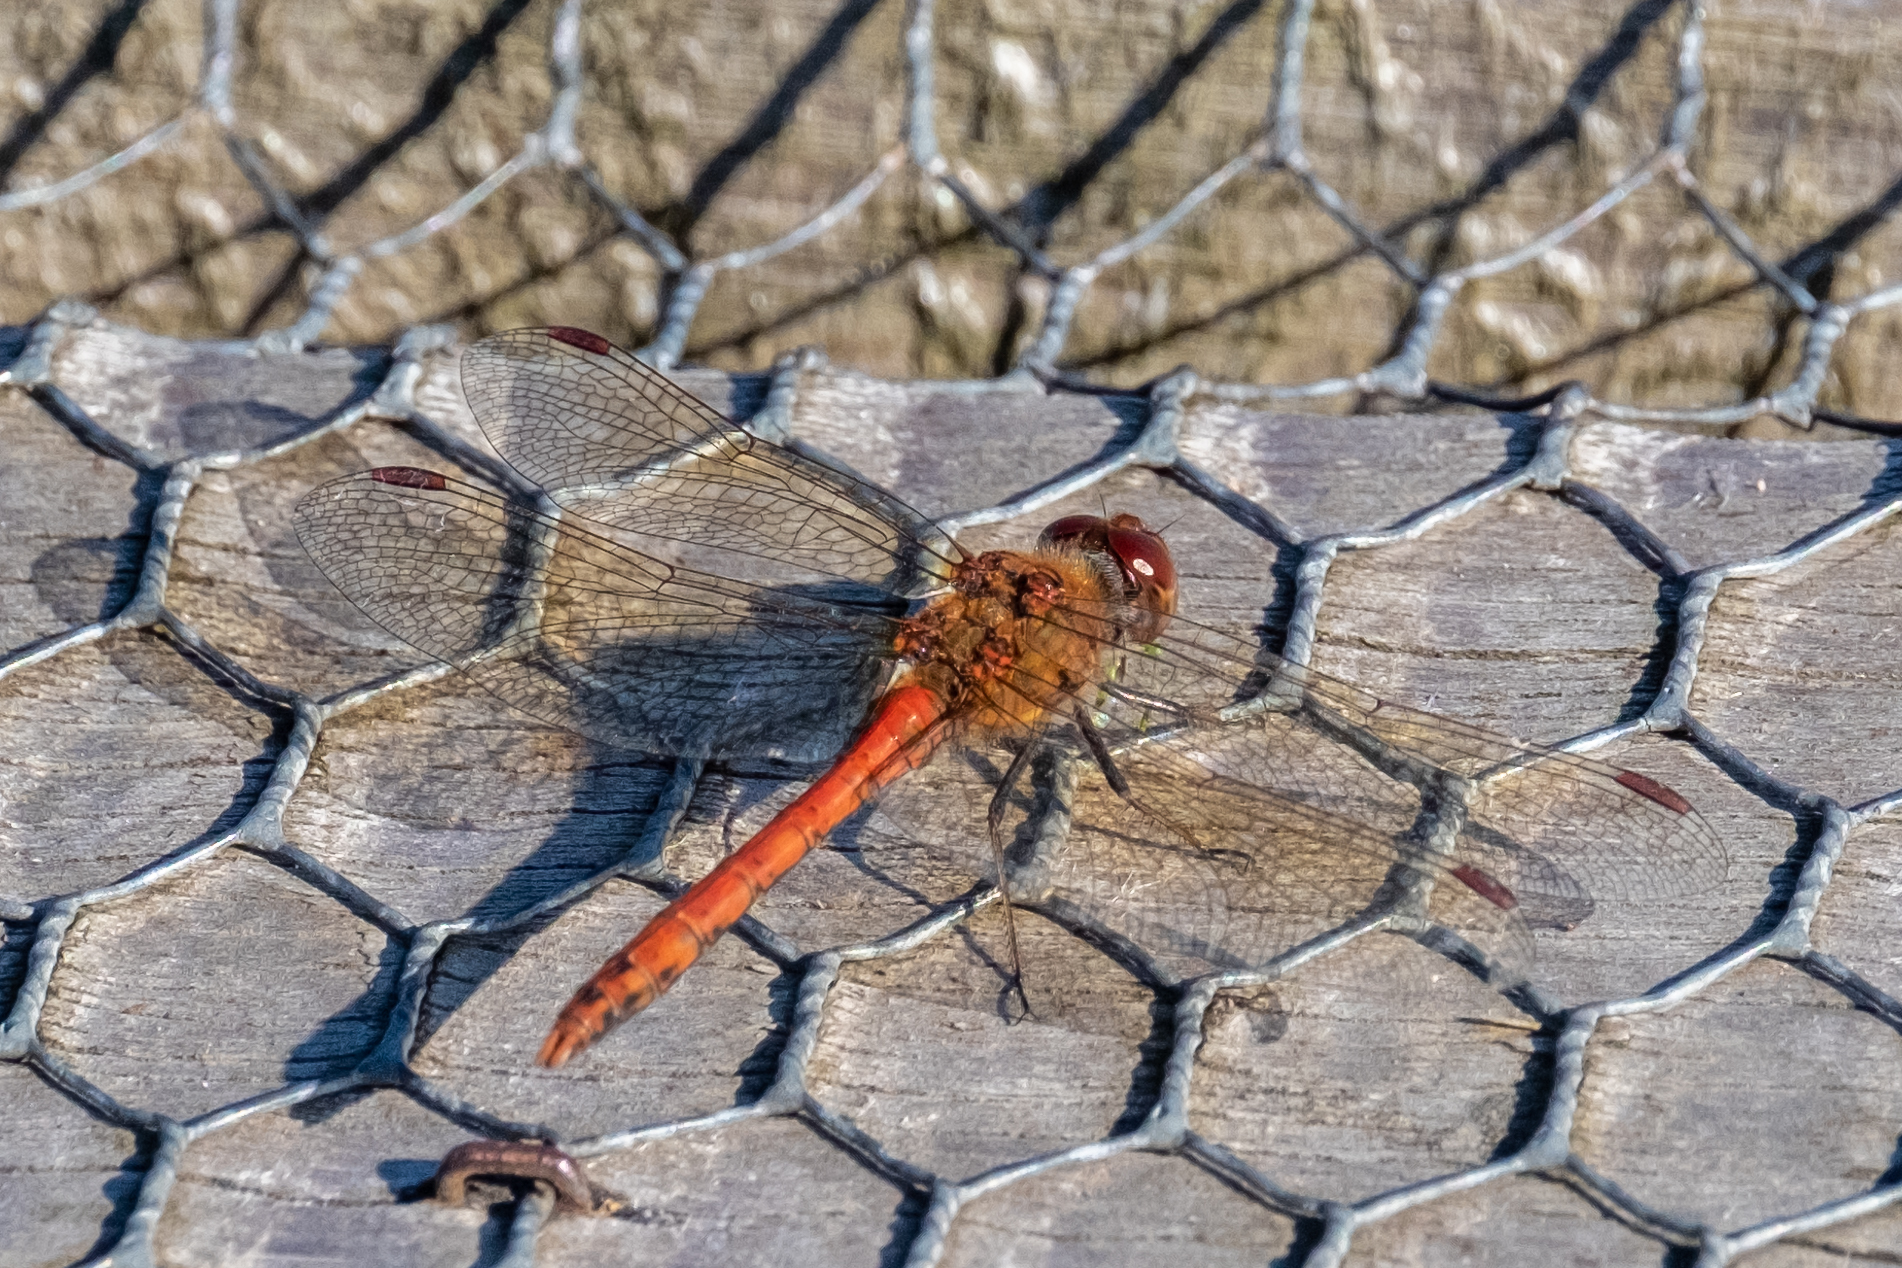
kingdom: Animalia
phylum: Arthropoda
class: Insecta
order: Odonata
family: Libellulidae
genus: Sympetrum
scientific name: Sympetrum sanguineum
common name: Ruddy darter
